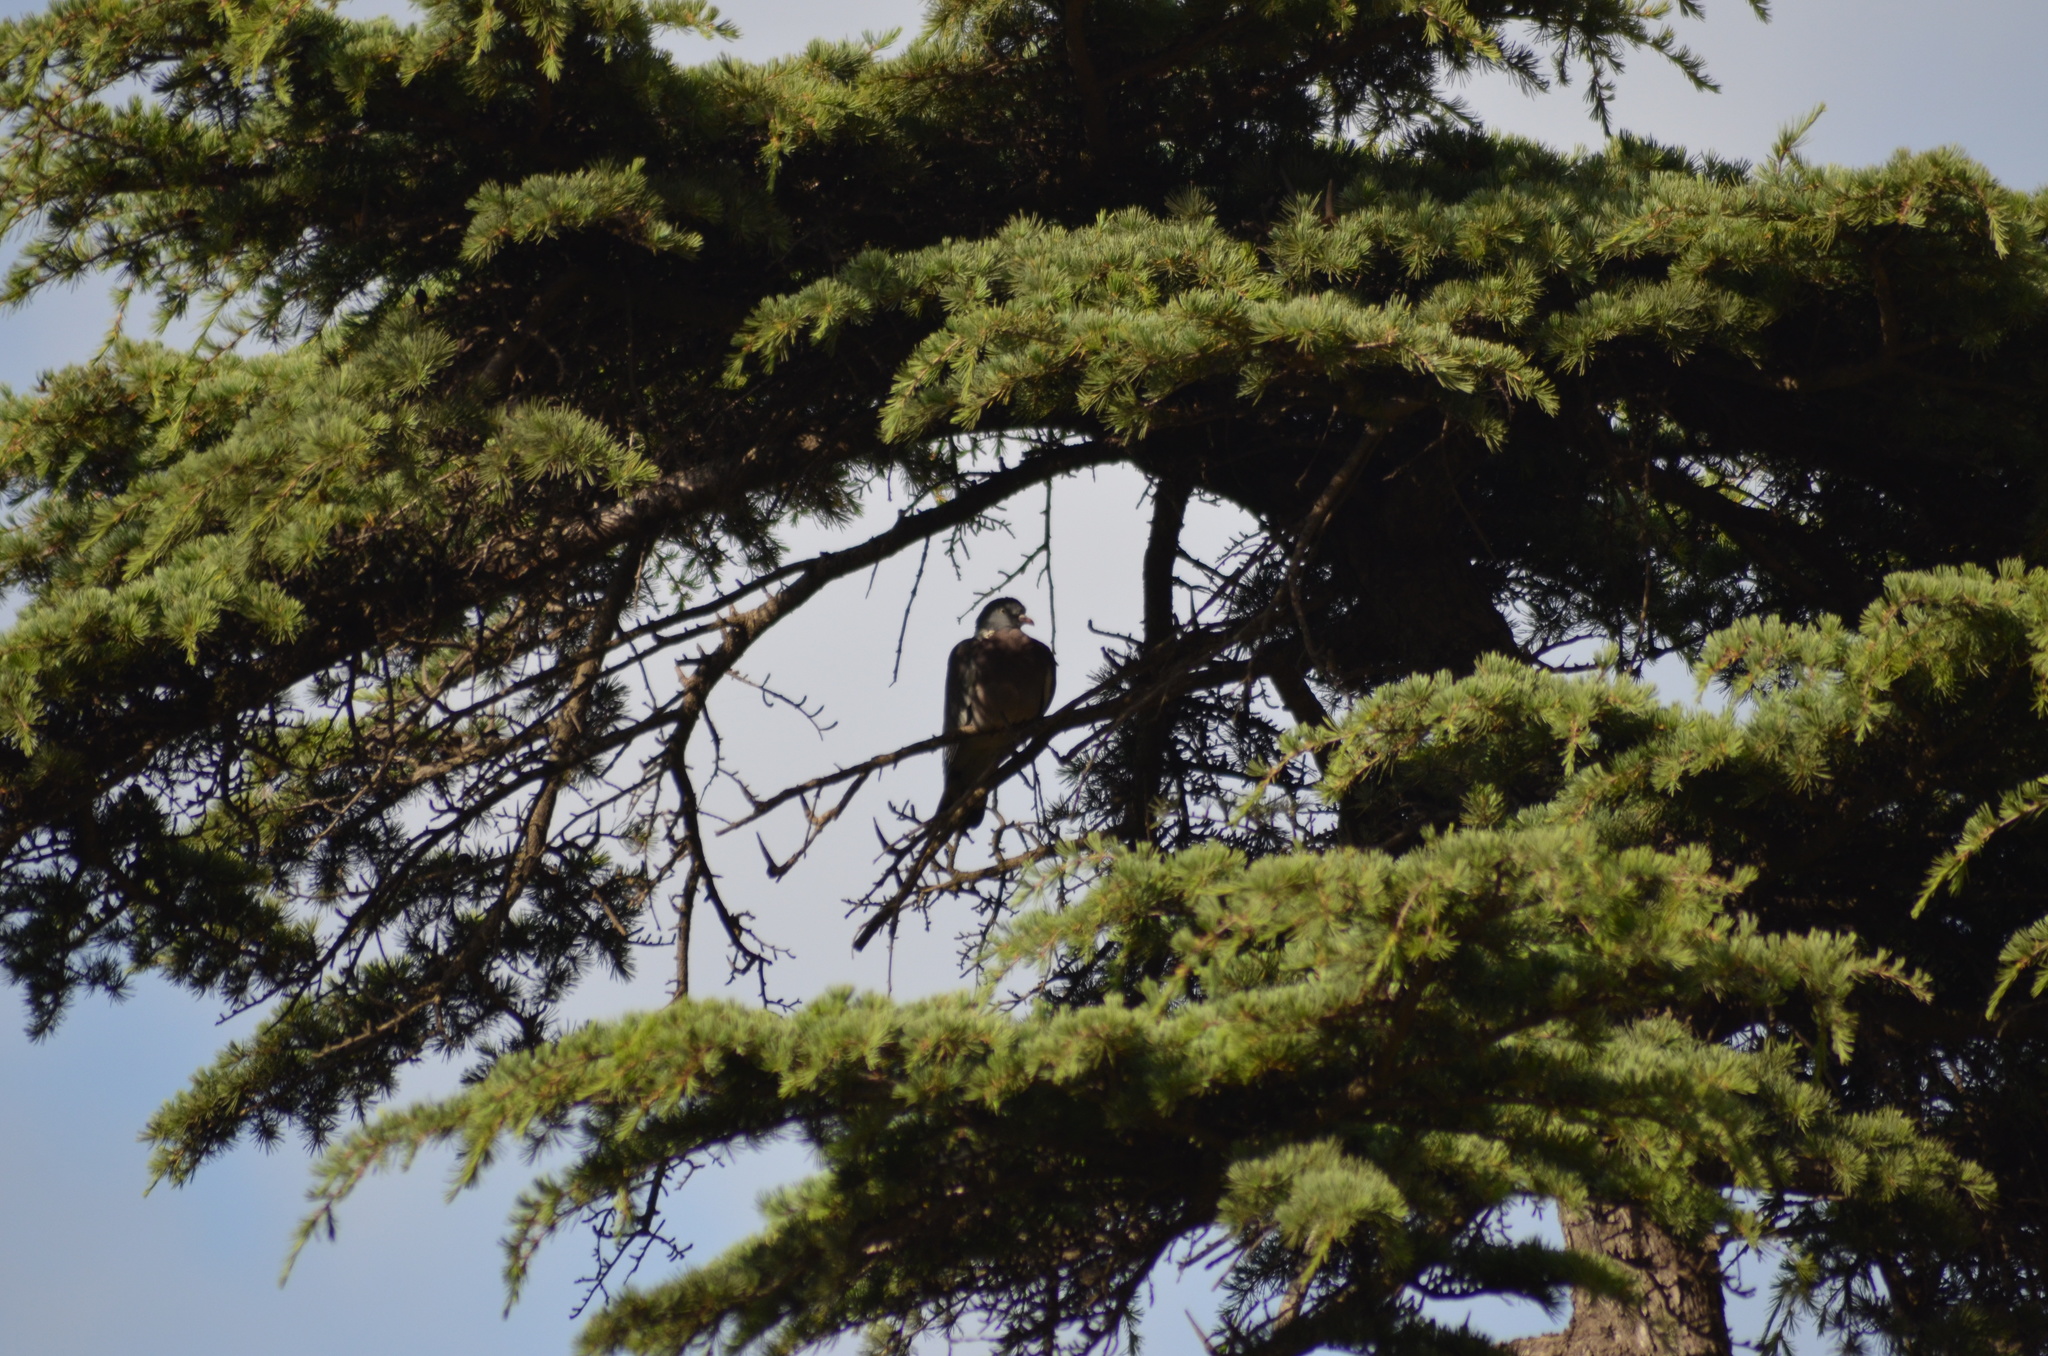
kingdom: Animalia
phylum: Chordata
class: Aves
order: Columbiformes
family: Columbidae
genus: Columba
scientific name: Columba palumbus
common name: Common wood pigeon
